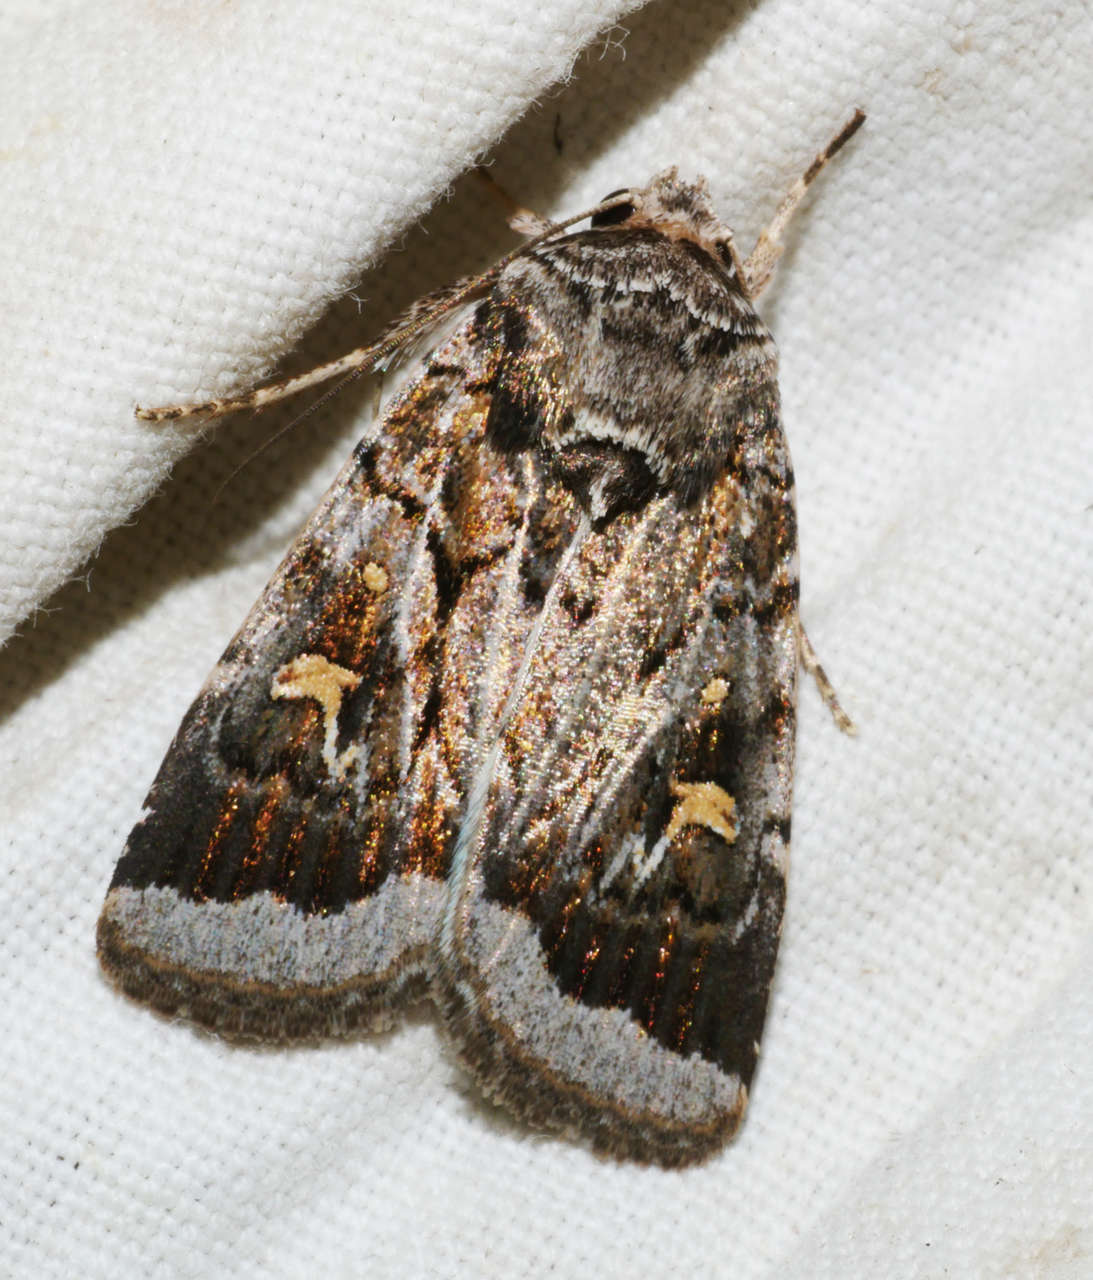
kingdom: Animalia
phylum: Arthropoda
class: Insecta
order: Lepidoptera
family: Noctuidae
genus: Proteuxoa
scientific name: Proteuxoa oxygona
